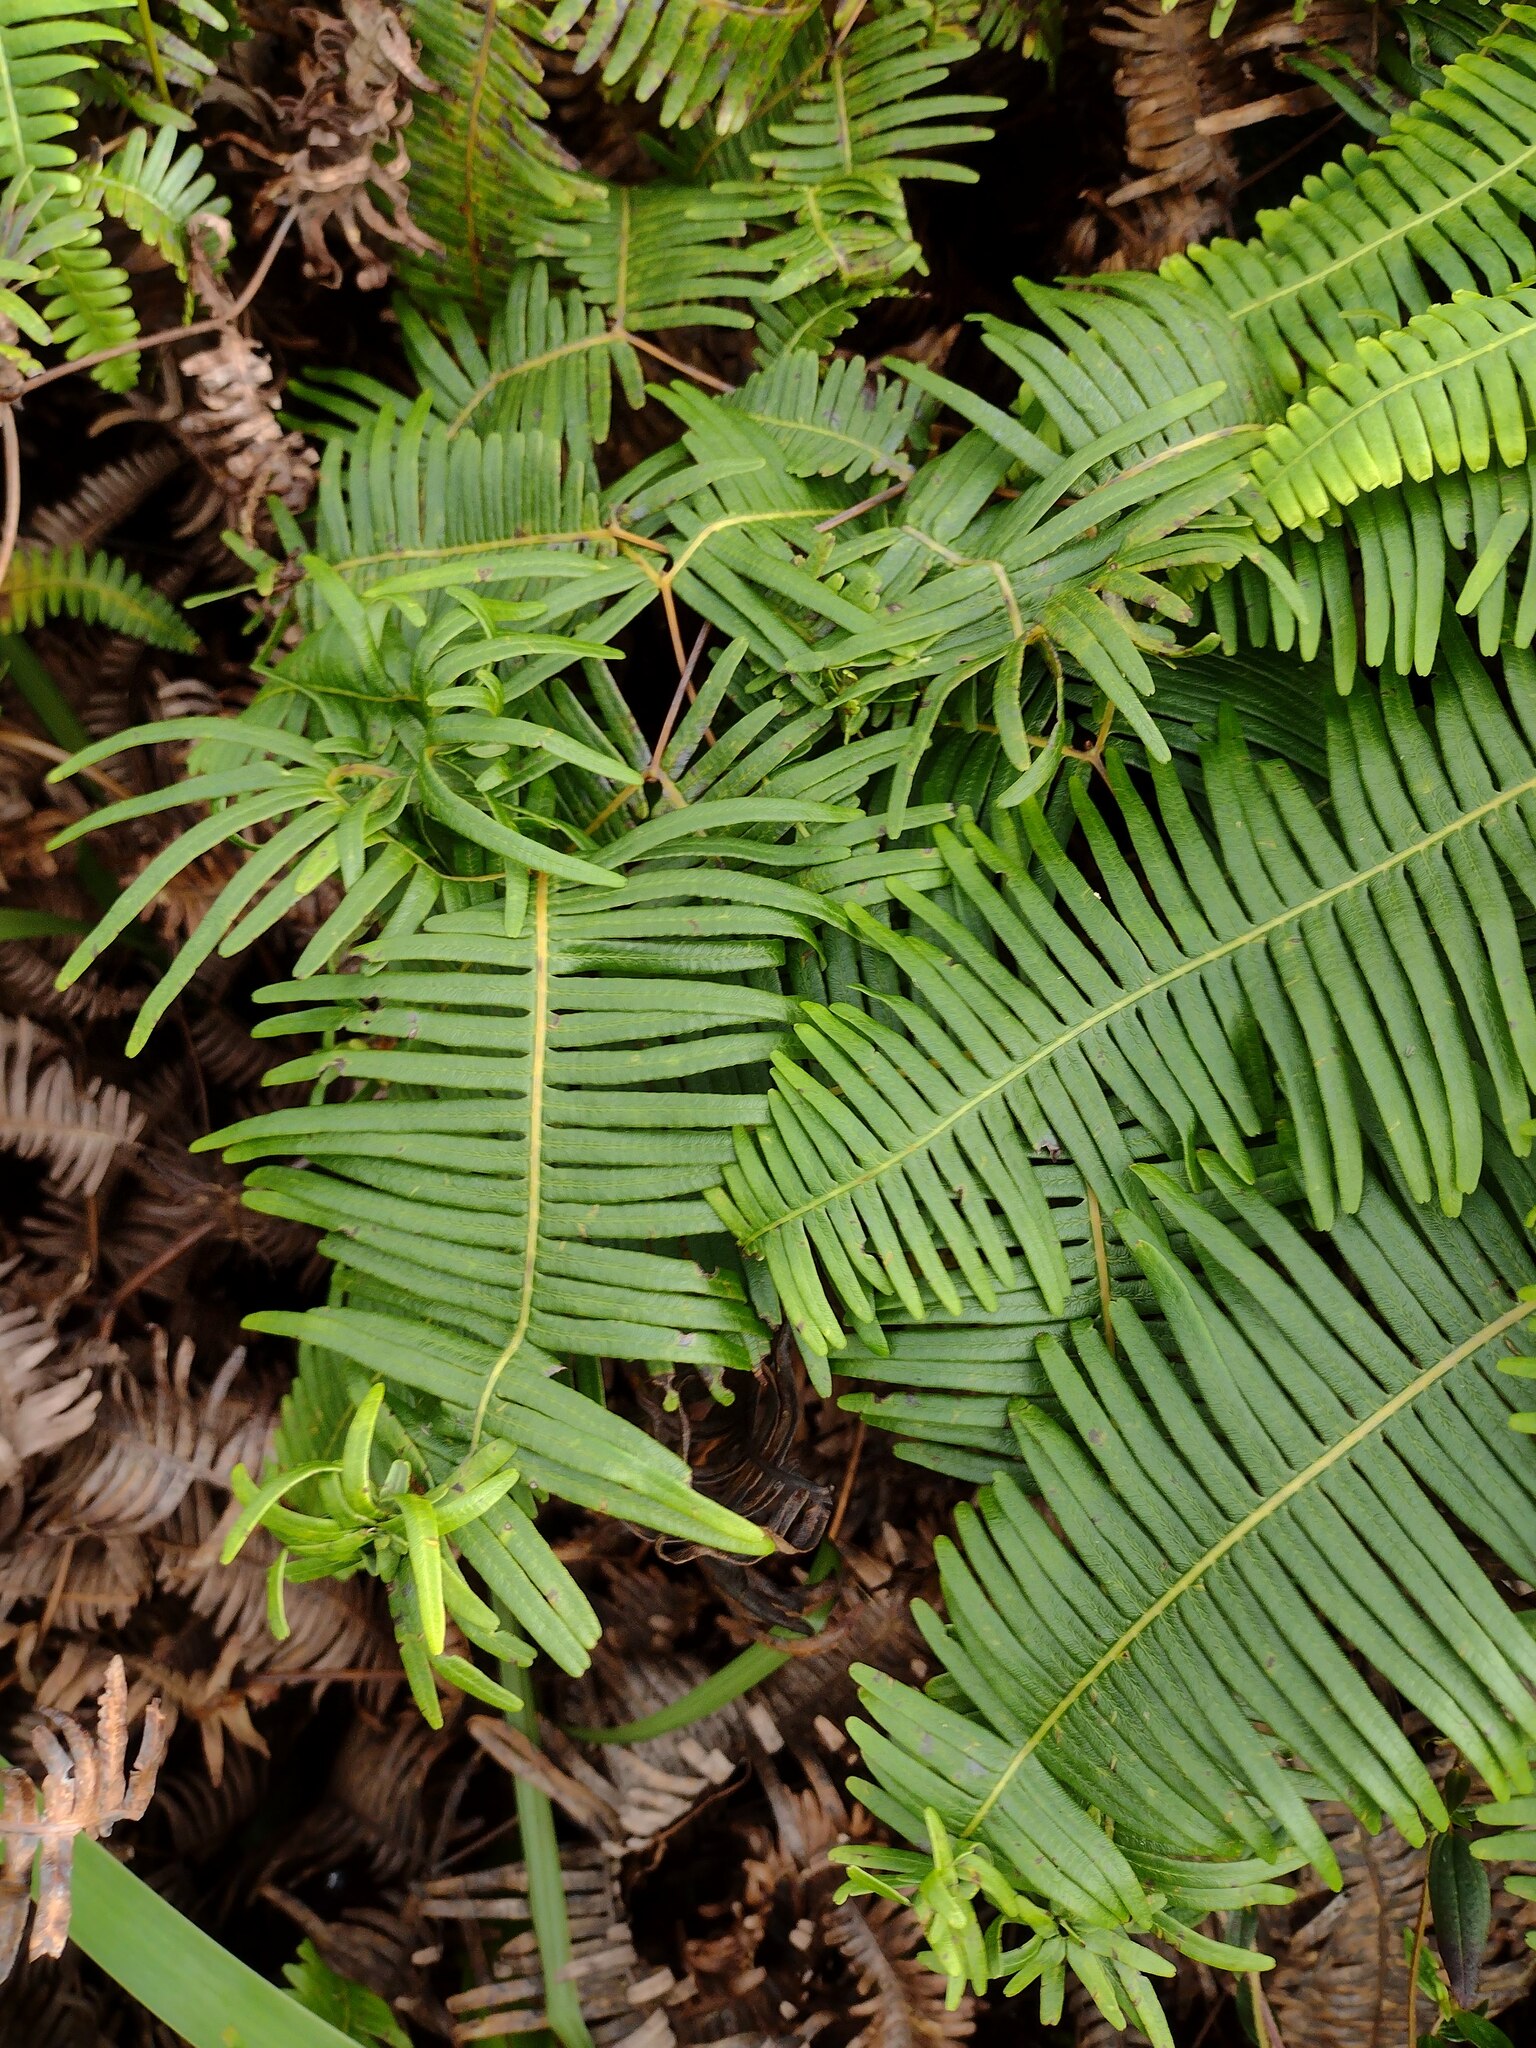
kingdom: Animalia
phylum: Arthropoda
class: Insecta
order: Hemiptera
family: Pseudococcidae
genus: Nesopedronia
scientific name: Nesopedronia hawaiiensis
